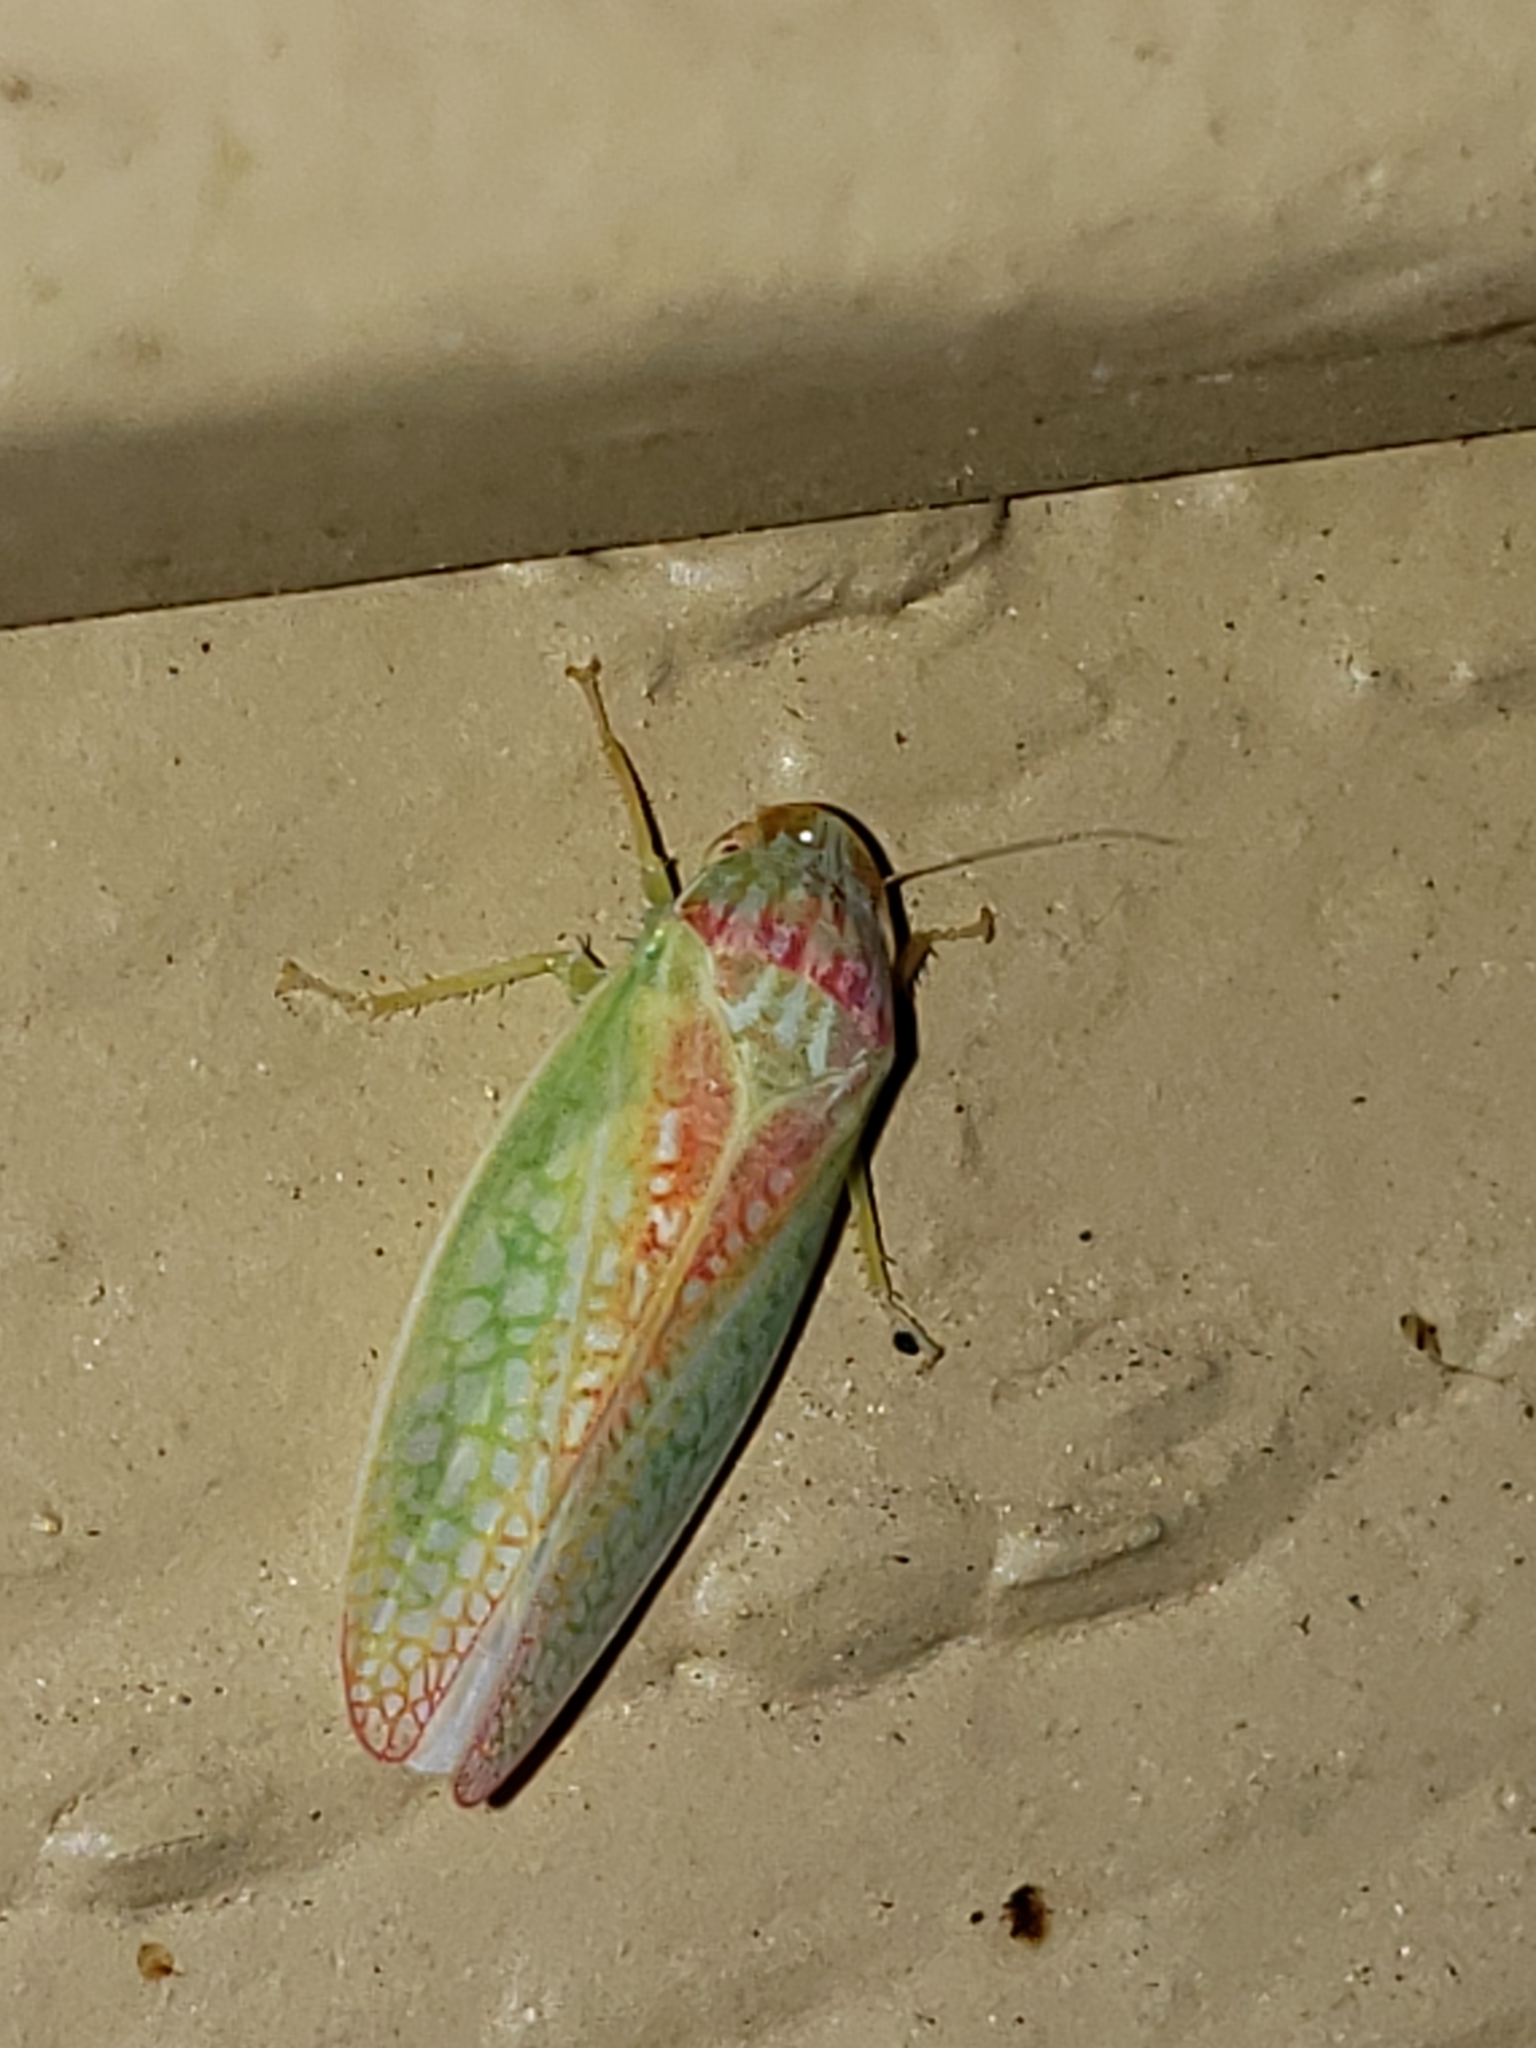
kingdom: Animalia
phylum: Arthropoda
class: Insecta
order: Hemiptera
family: Cicadellidae
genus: Gyponana
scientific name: Gyponana octolineata
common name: Eight-lined leafhopper
